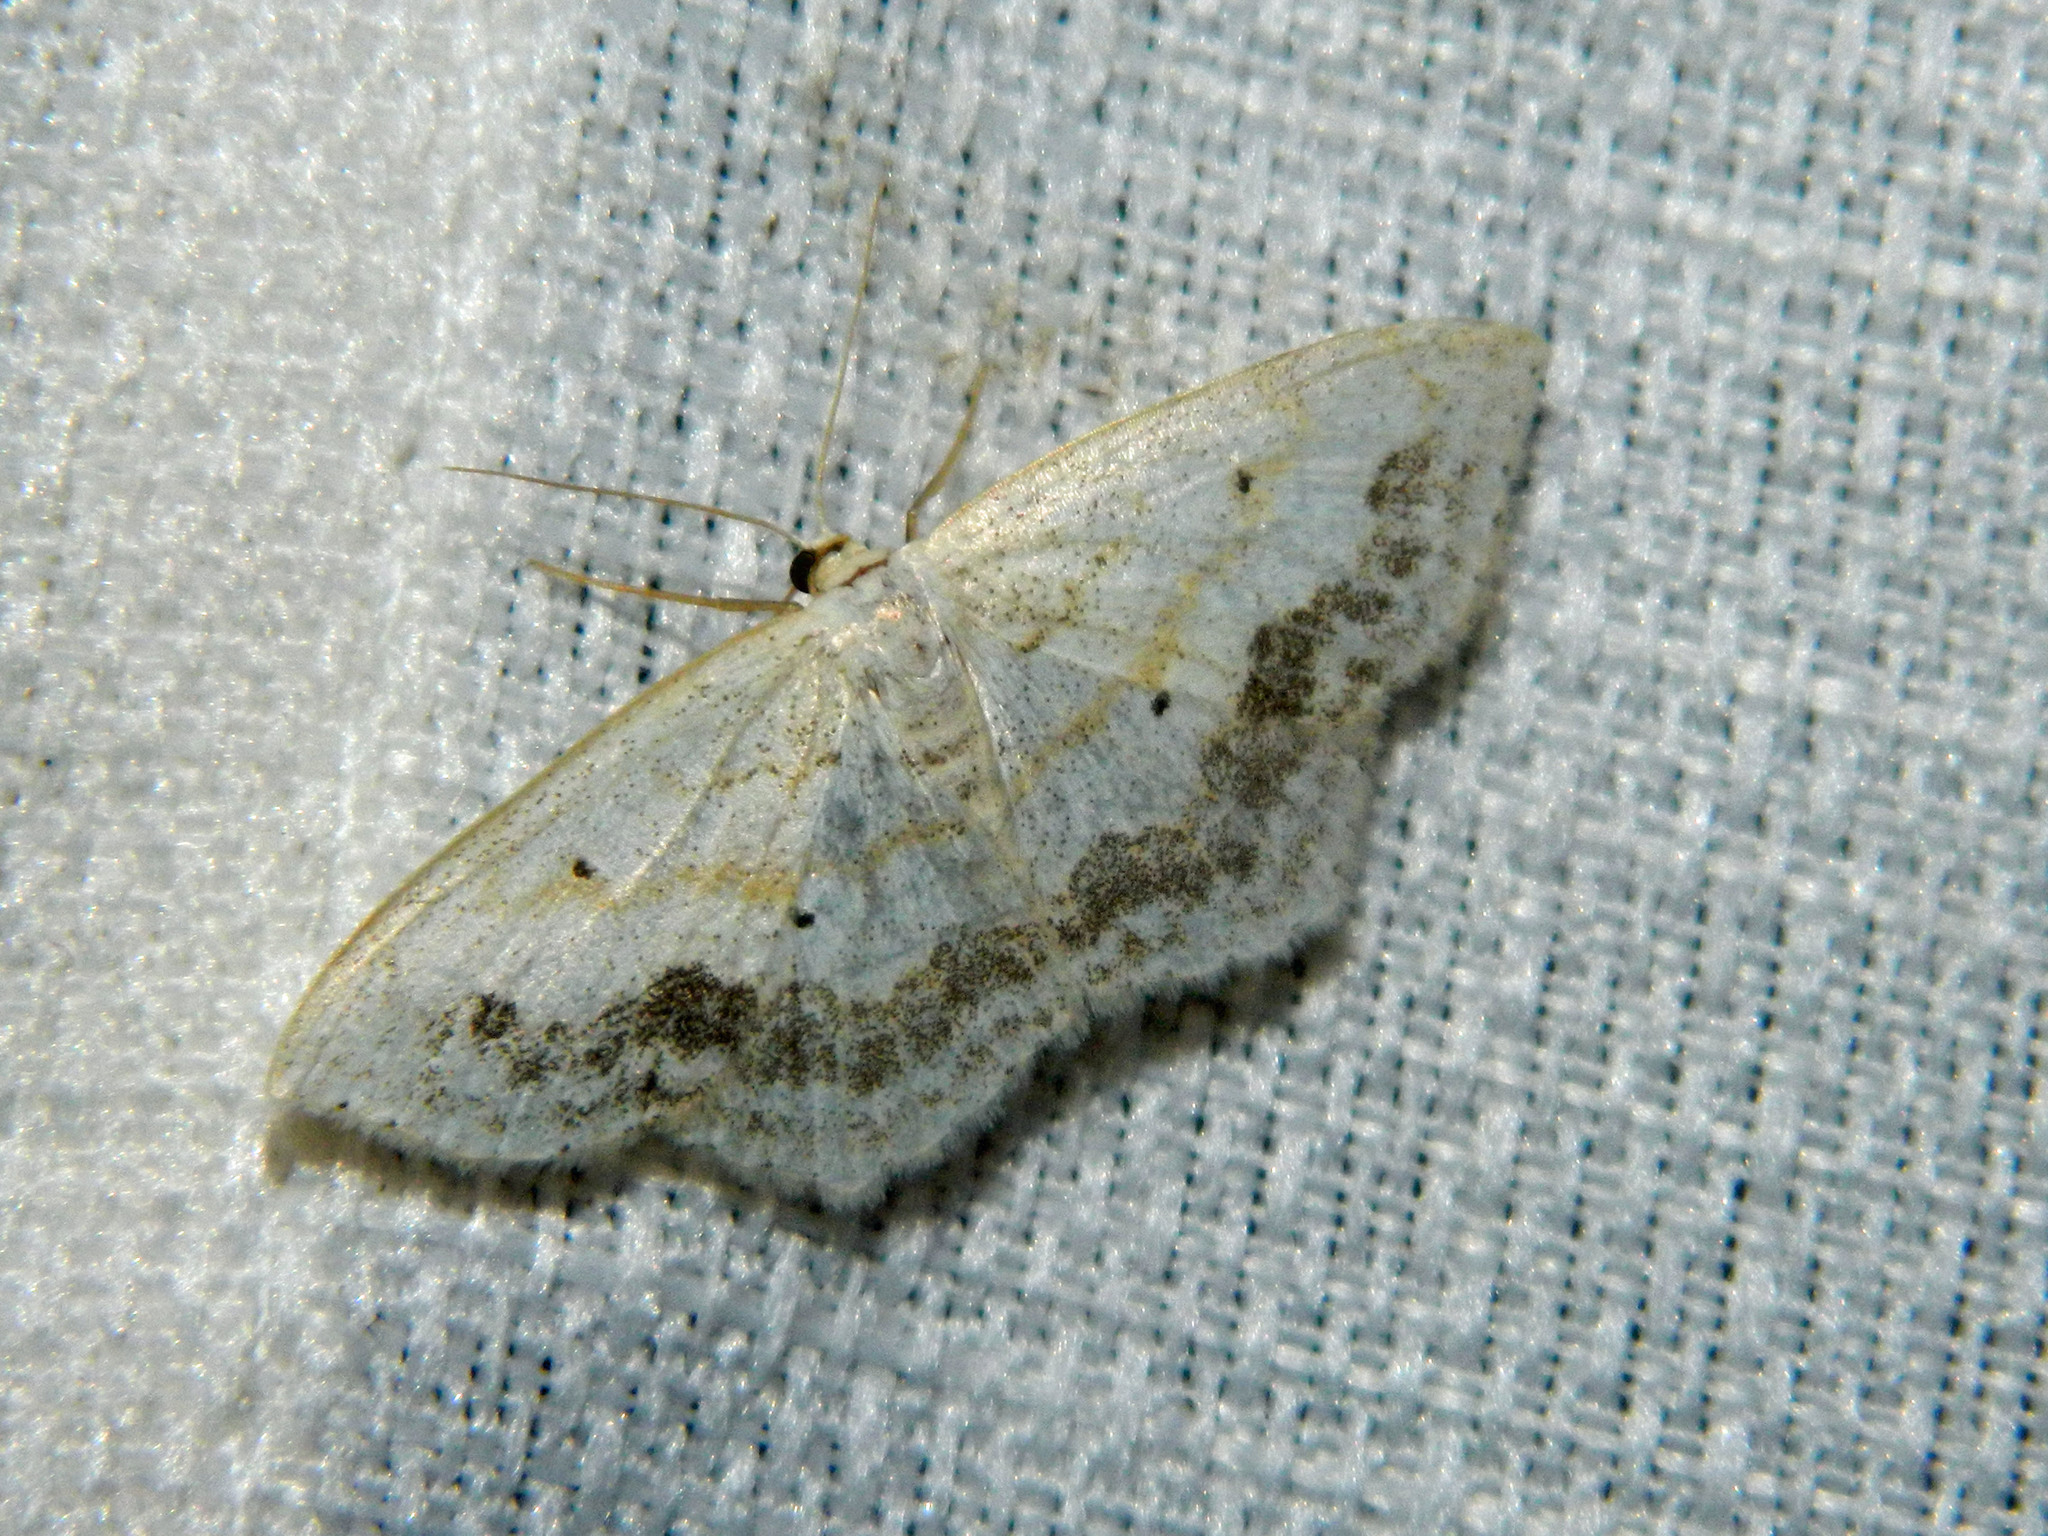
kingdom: Animalia
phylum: Arthropoda
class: Insecta
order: Lepidoptera
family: Geometridae
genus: Scopula
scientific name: Scopula limboundata
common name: Large lace border
